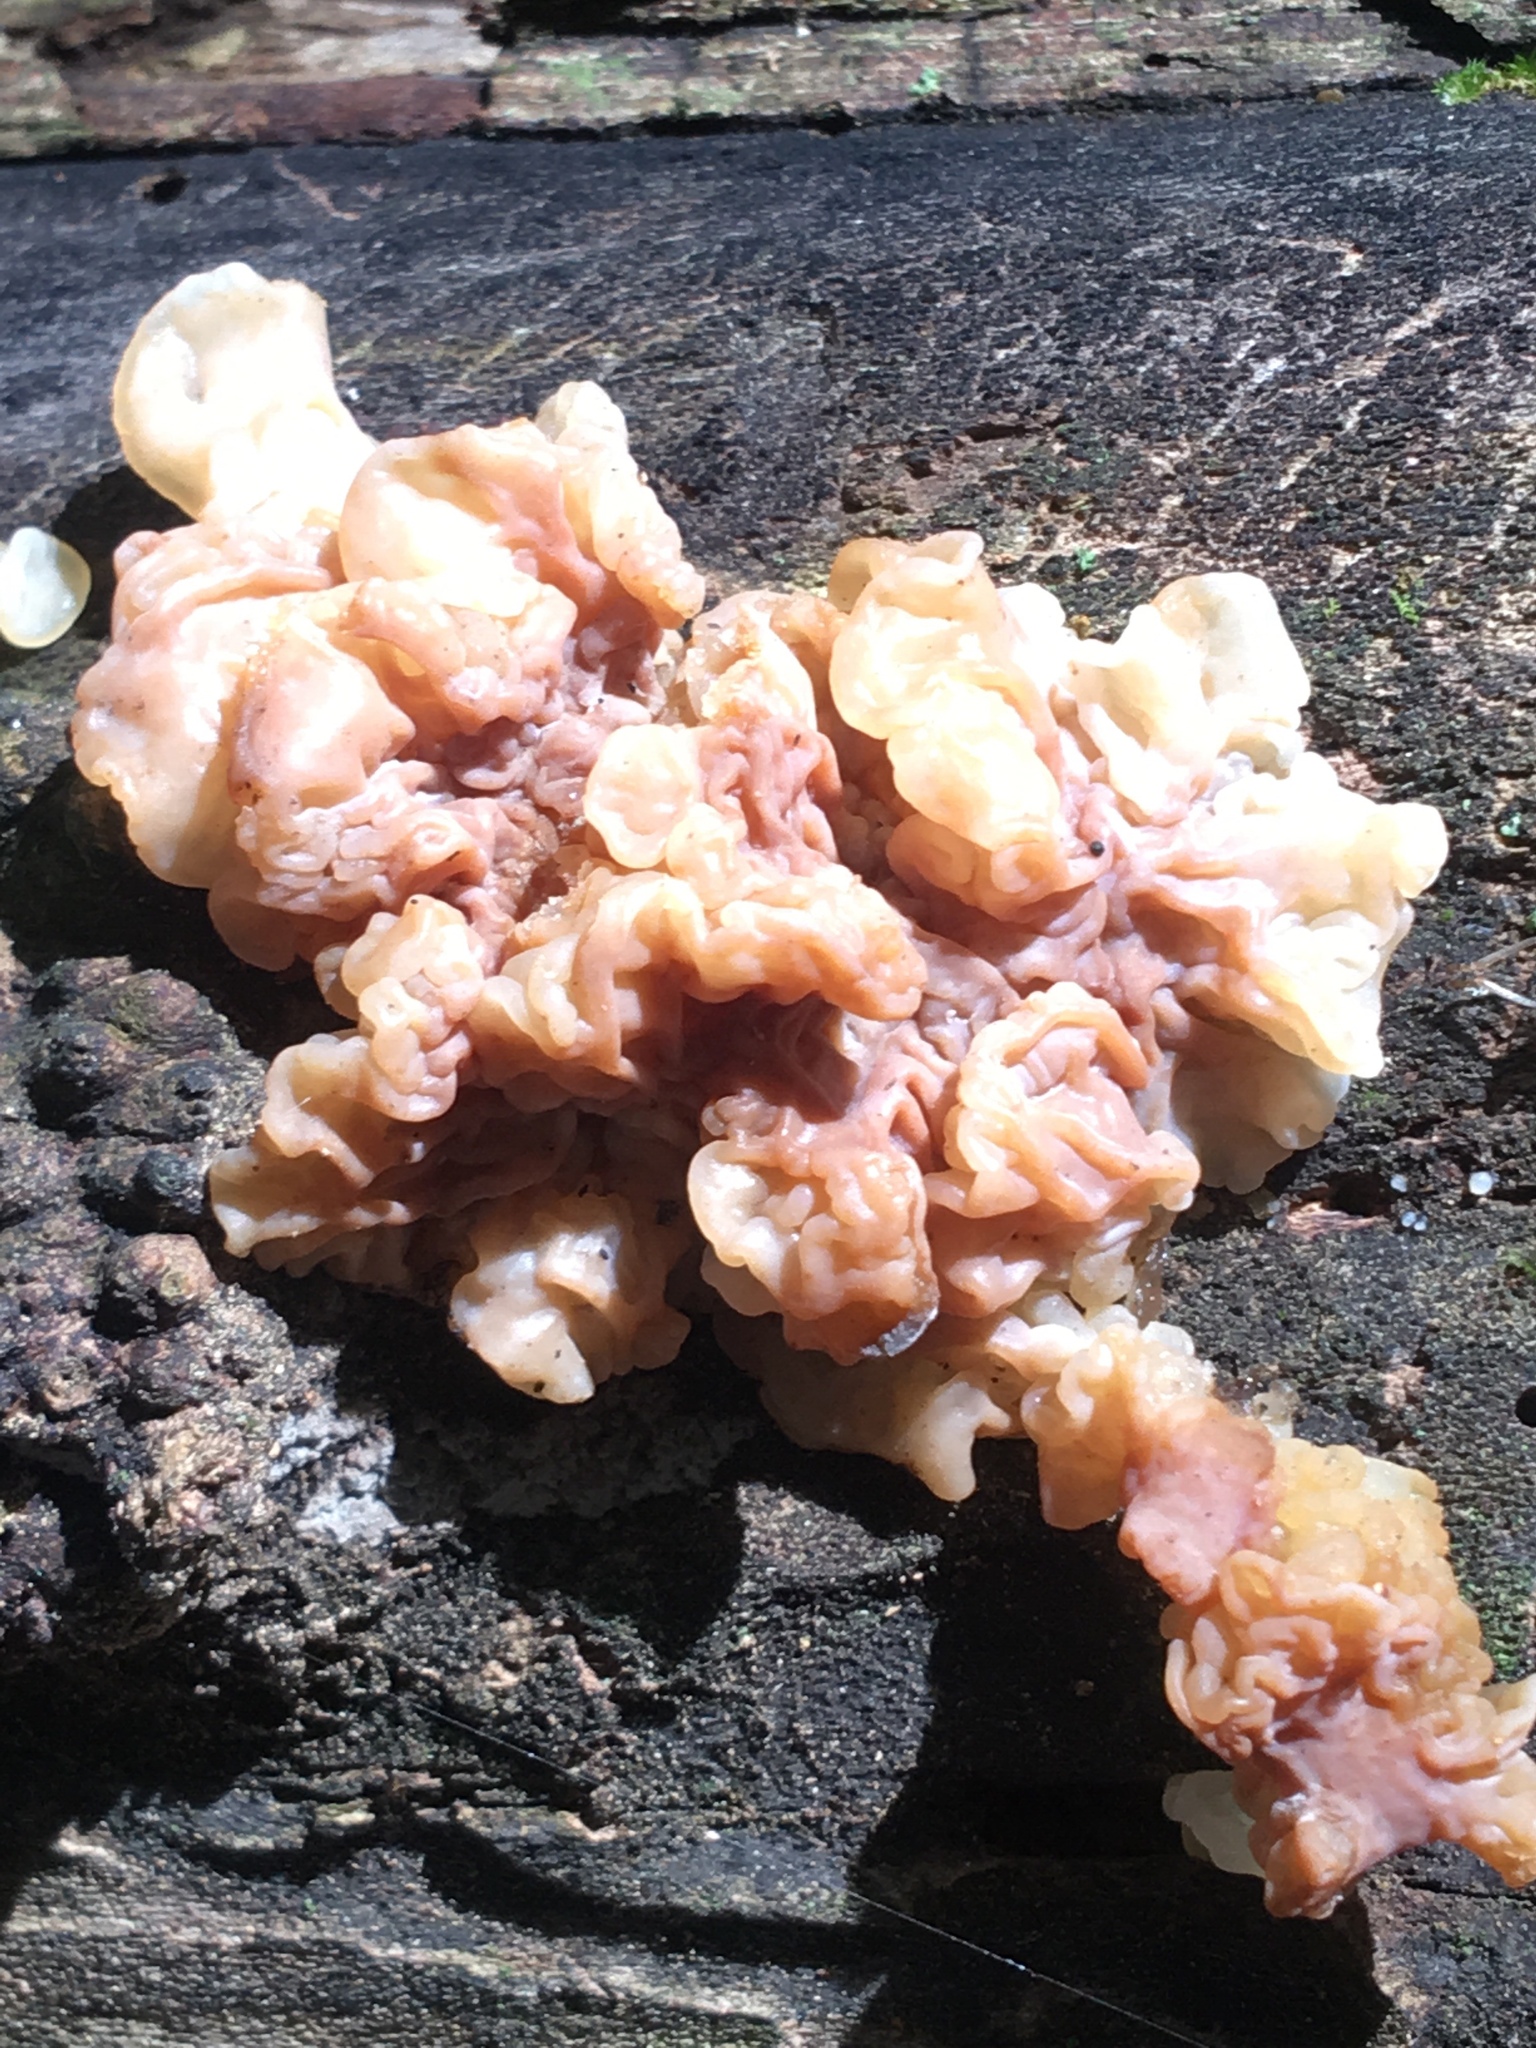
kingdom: Fungi
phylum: Basidiomycota
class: Agaricomycetes
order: Auriculariales
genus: Ductifera
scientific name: Ductifera pululahuana
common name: White jelly fungus
